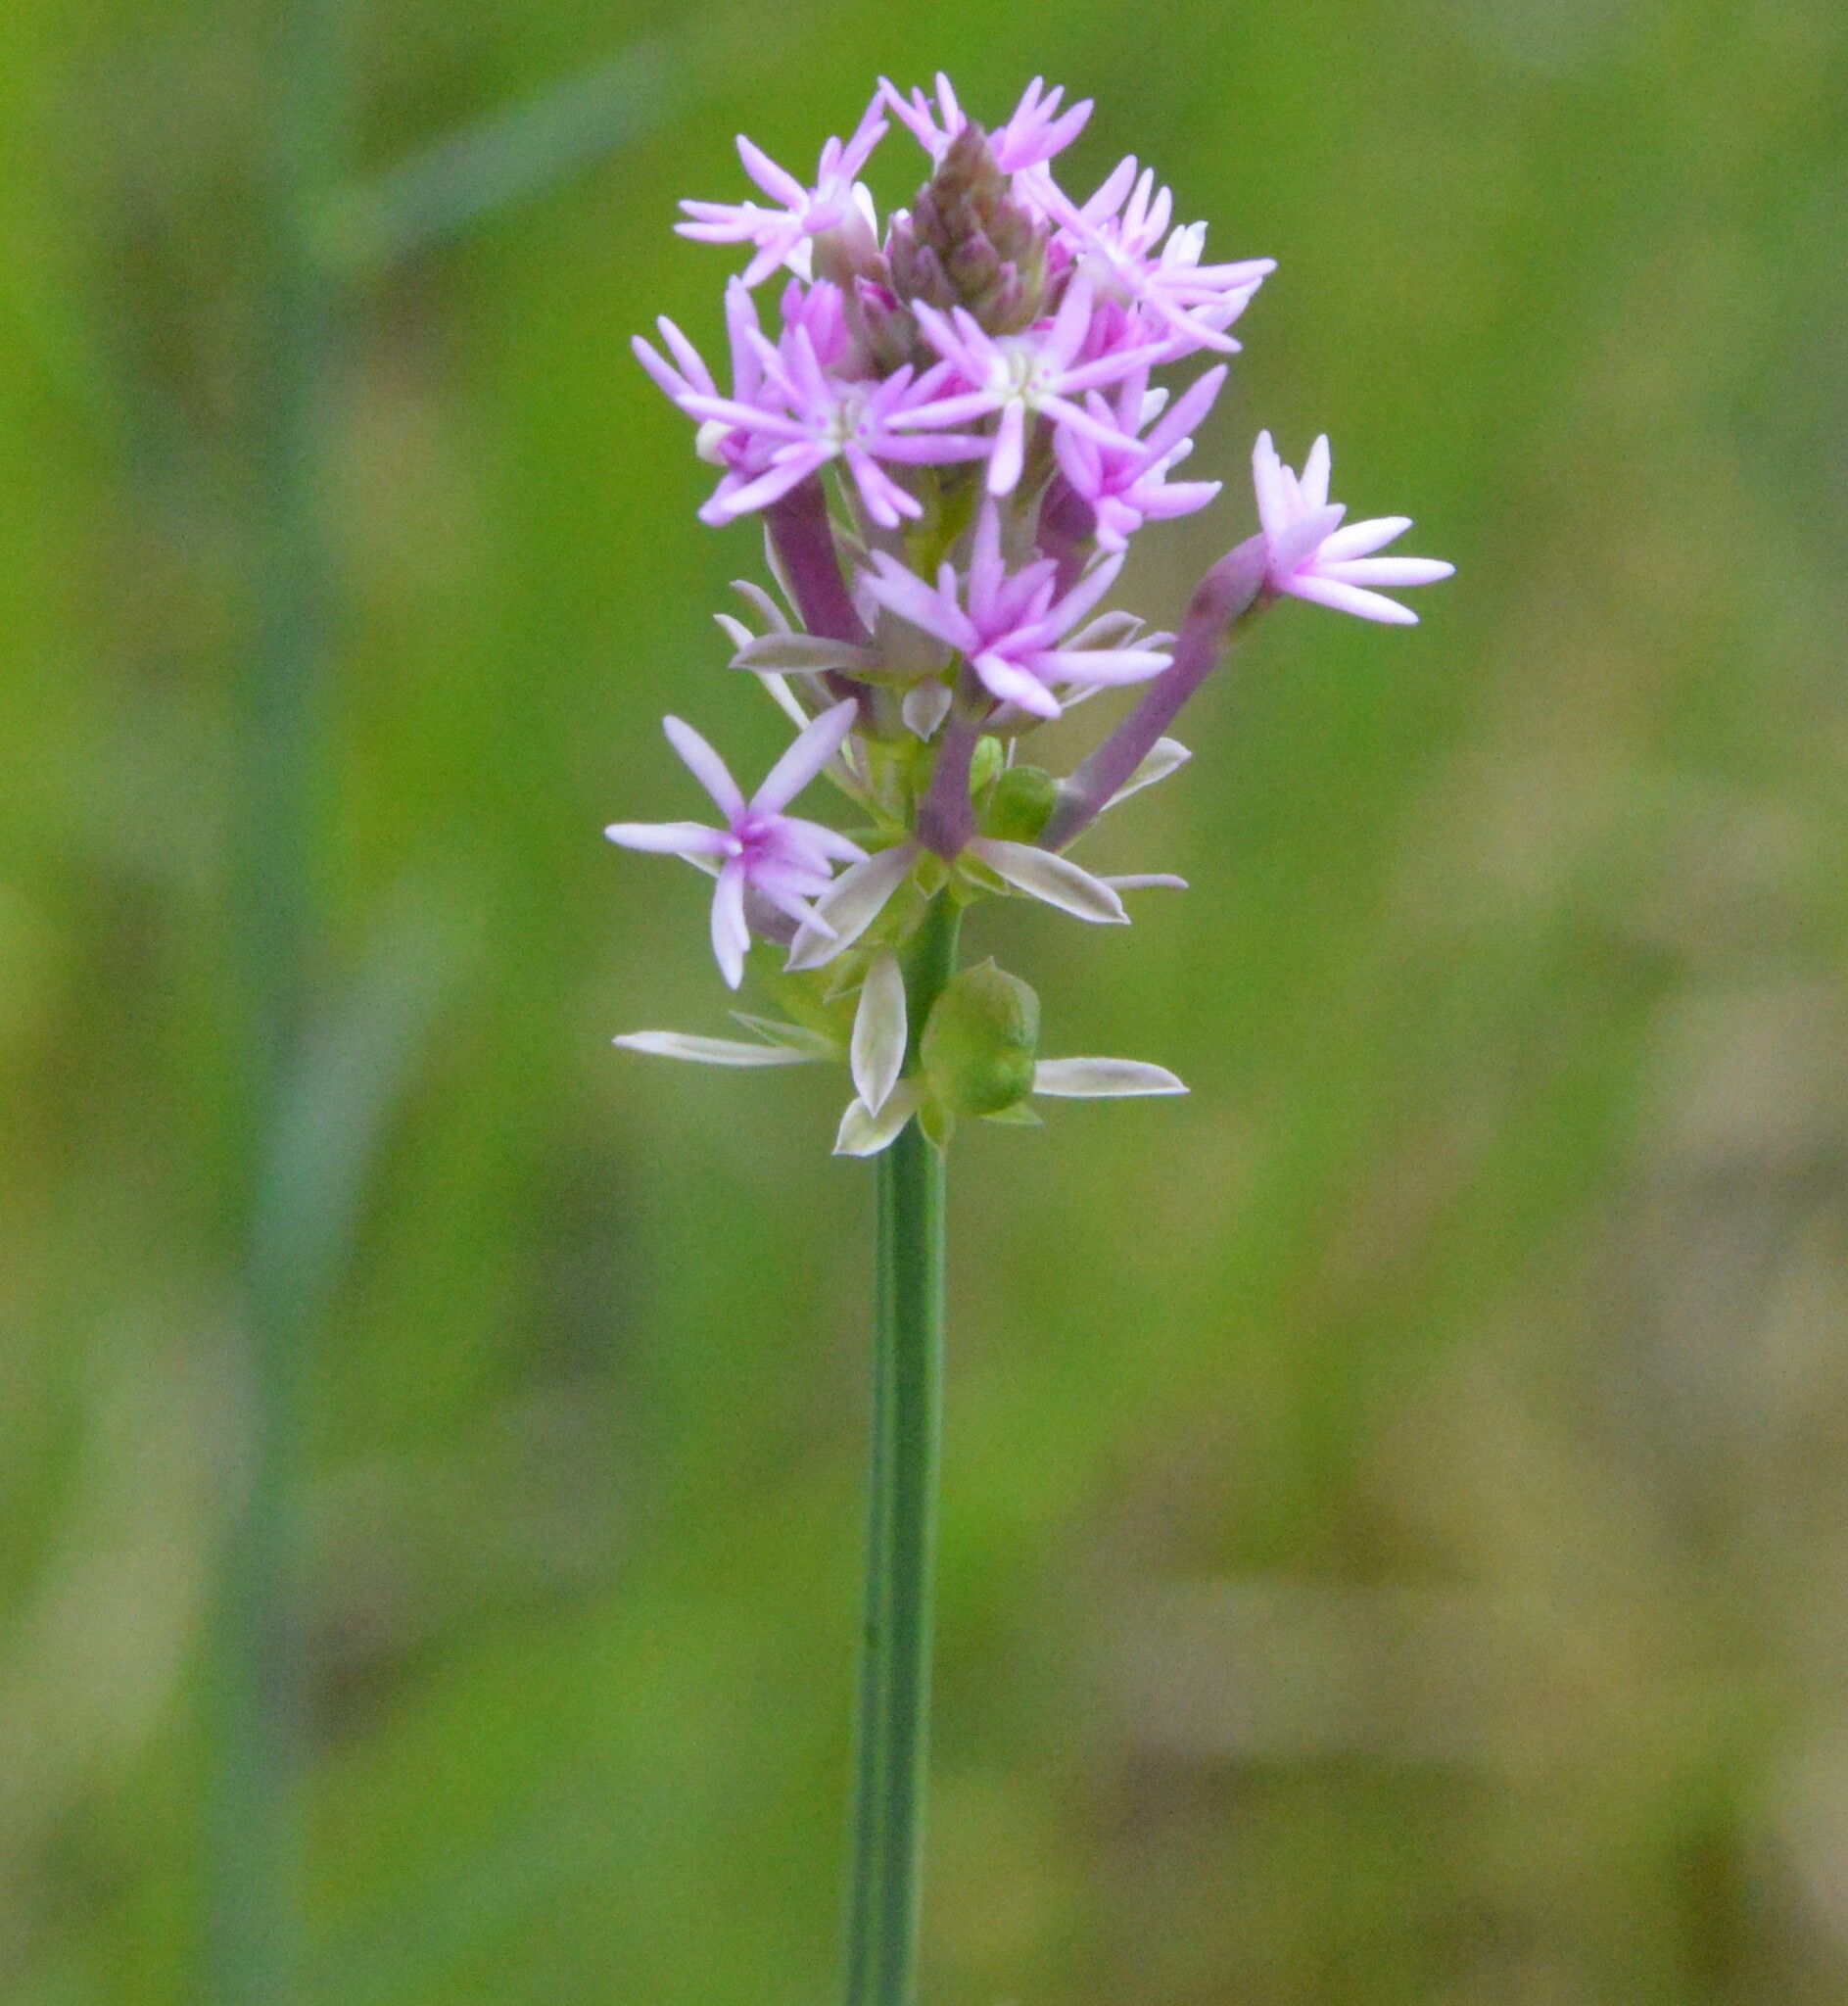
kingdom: Plantae
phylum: Tracheophyta
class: Magnoliopsida
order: Fabales
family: Polygalaceae
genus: Polygala
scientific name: Polygala incarnata
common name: Pink milkwort
